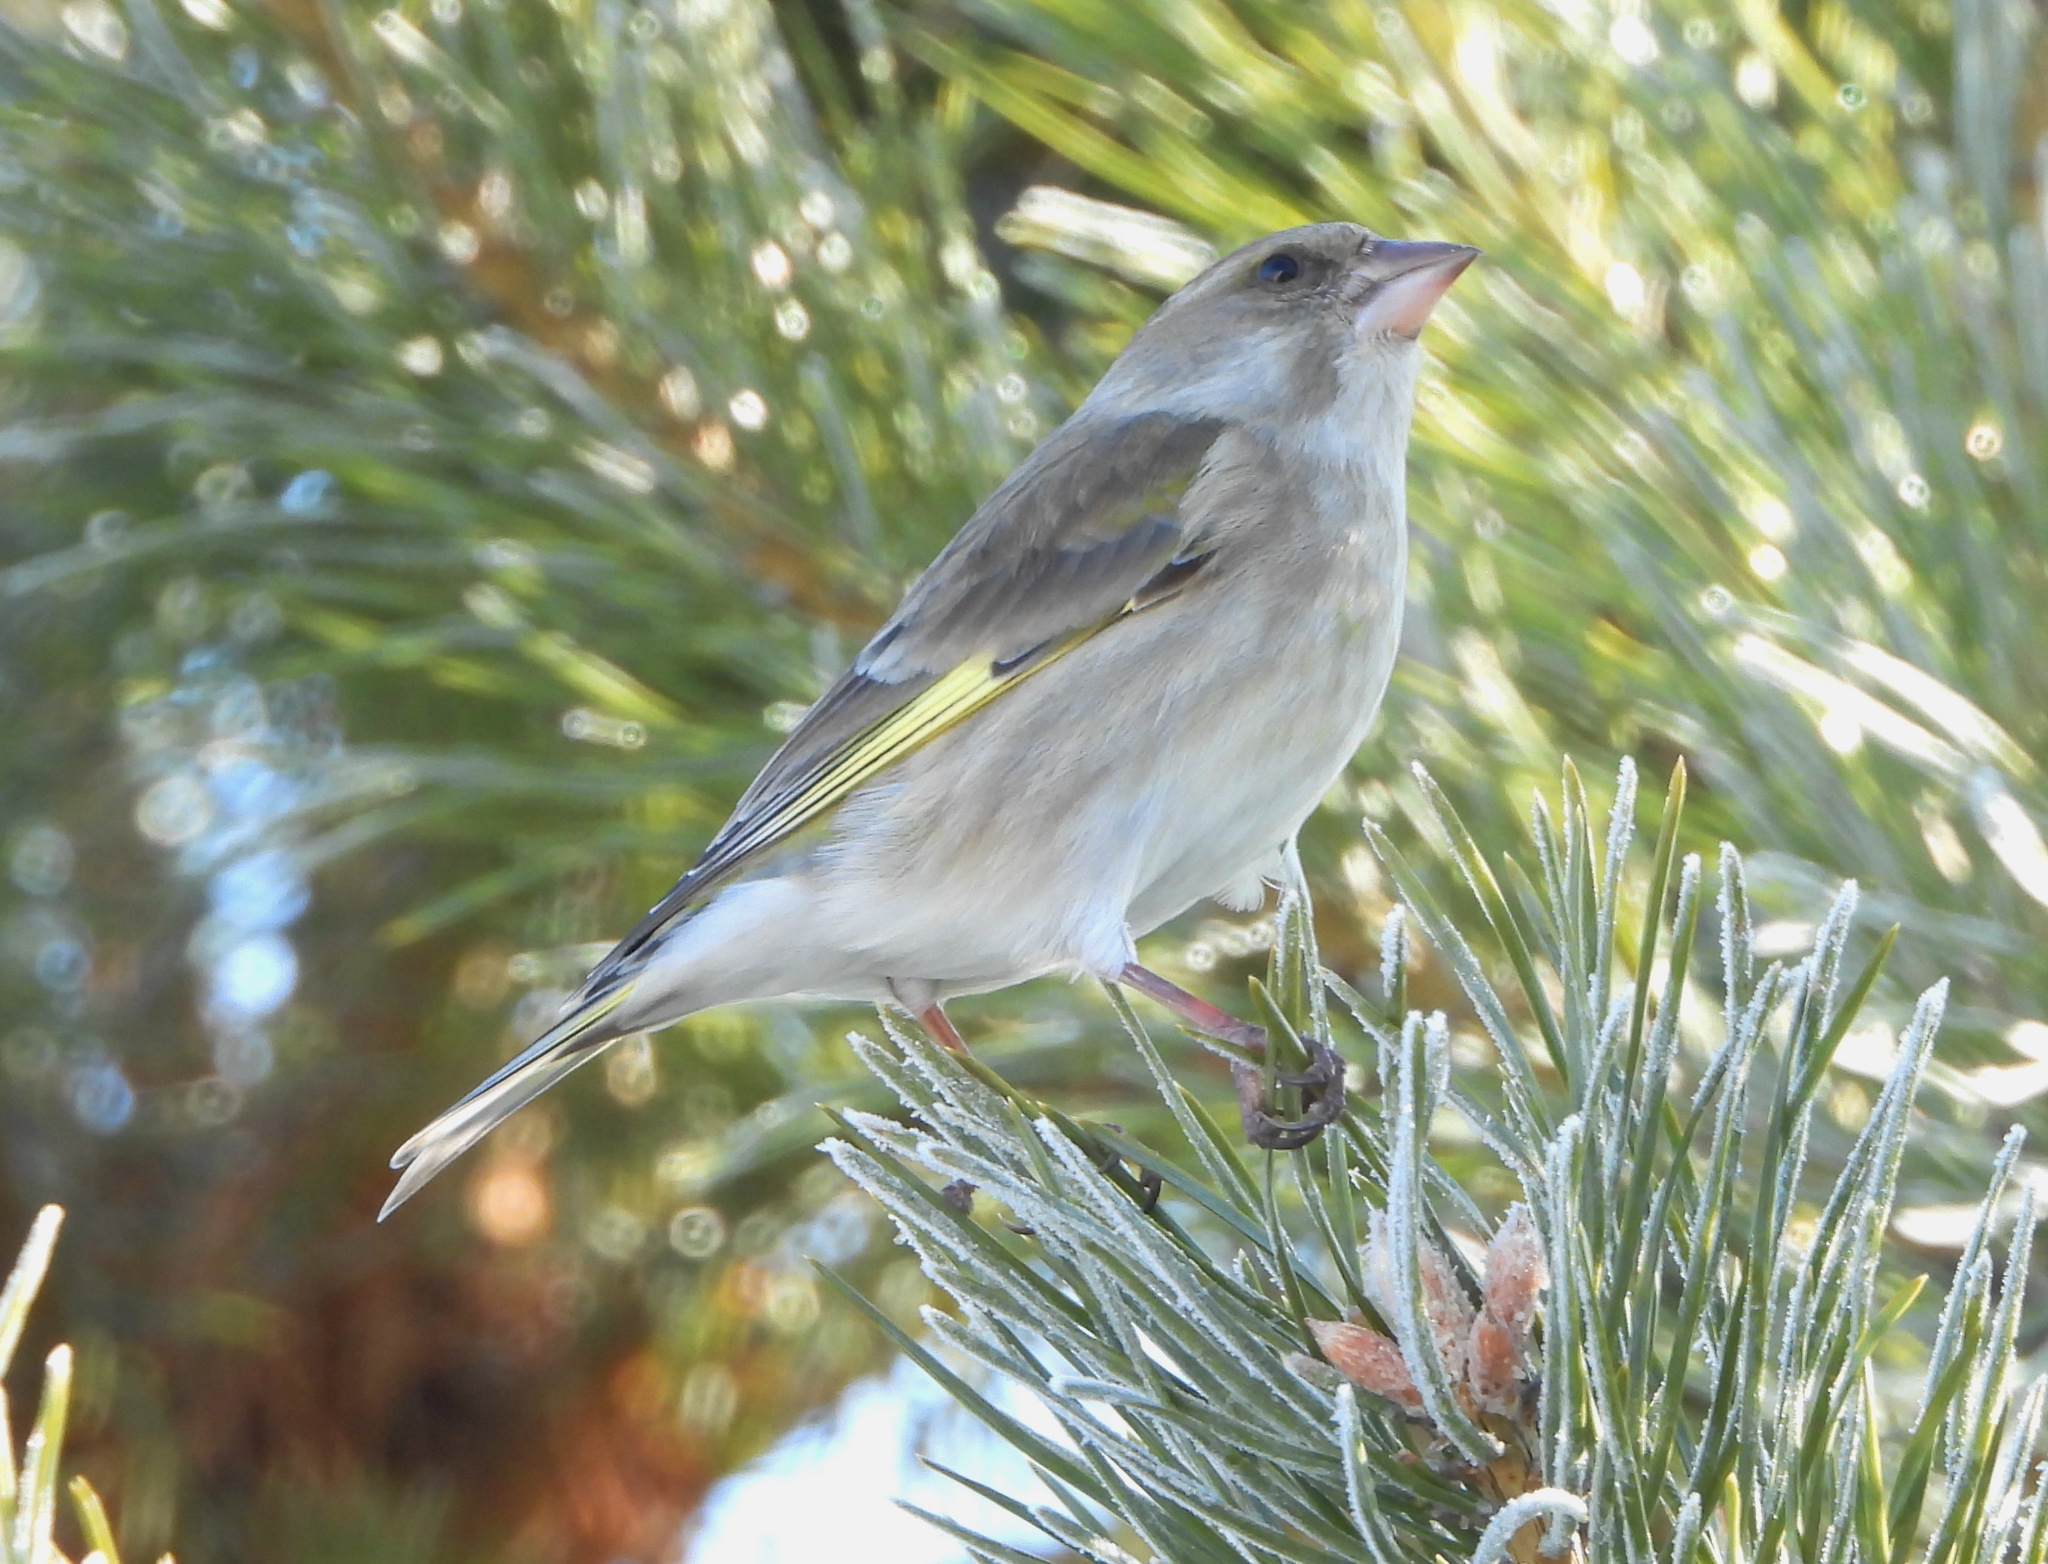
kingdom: Plantae
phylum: Tracheophyta
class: Liliopsida
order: Poales
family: Poaceae
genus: Chloris
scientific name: Chloris chloris
